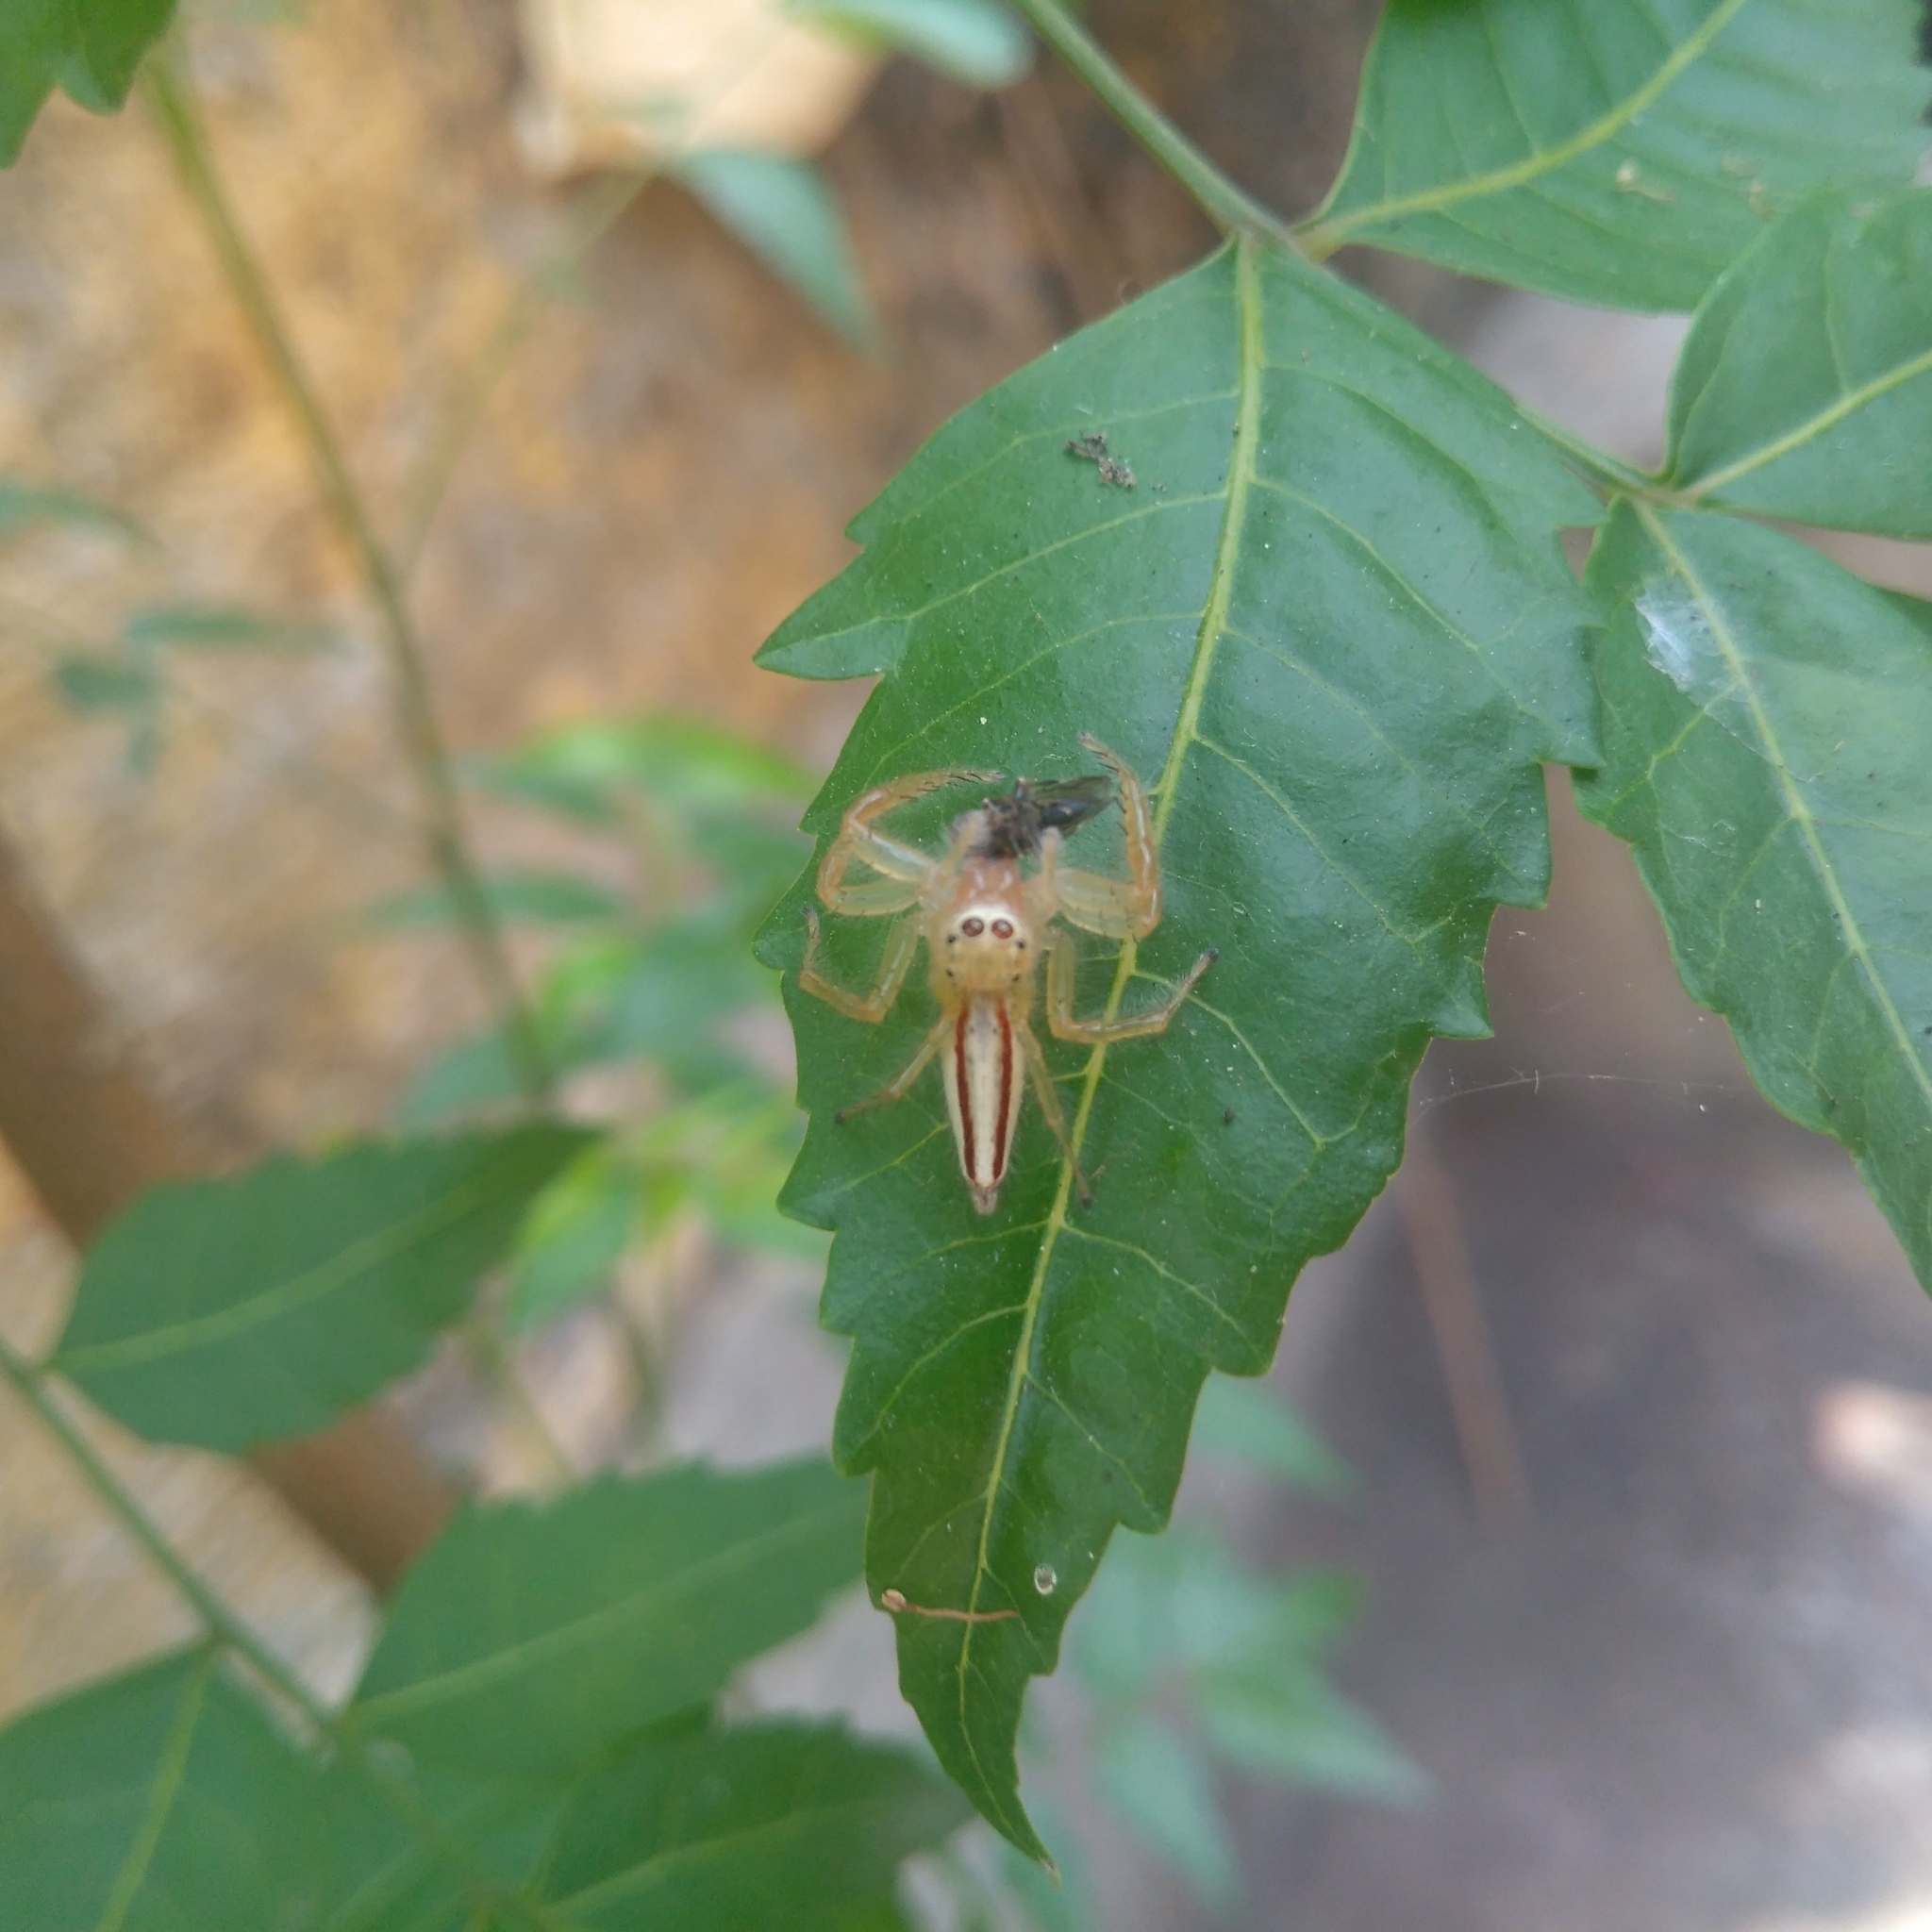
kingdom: Animalia
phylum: Arthropoda
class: Arachnida
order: Araneae
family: Salticidae
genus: Telamonia
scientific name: Telamonia dimidiata
